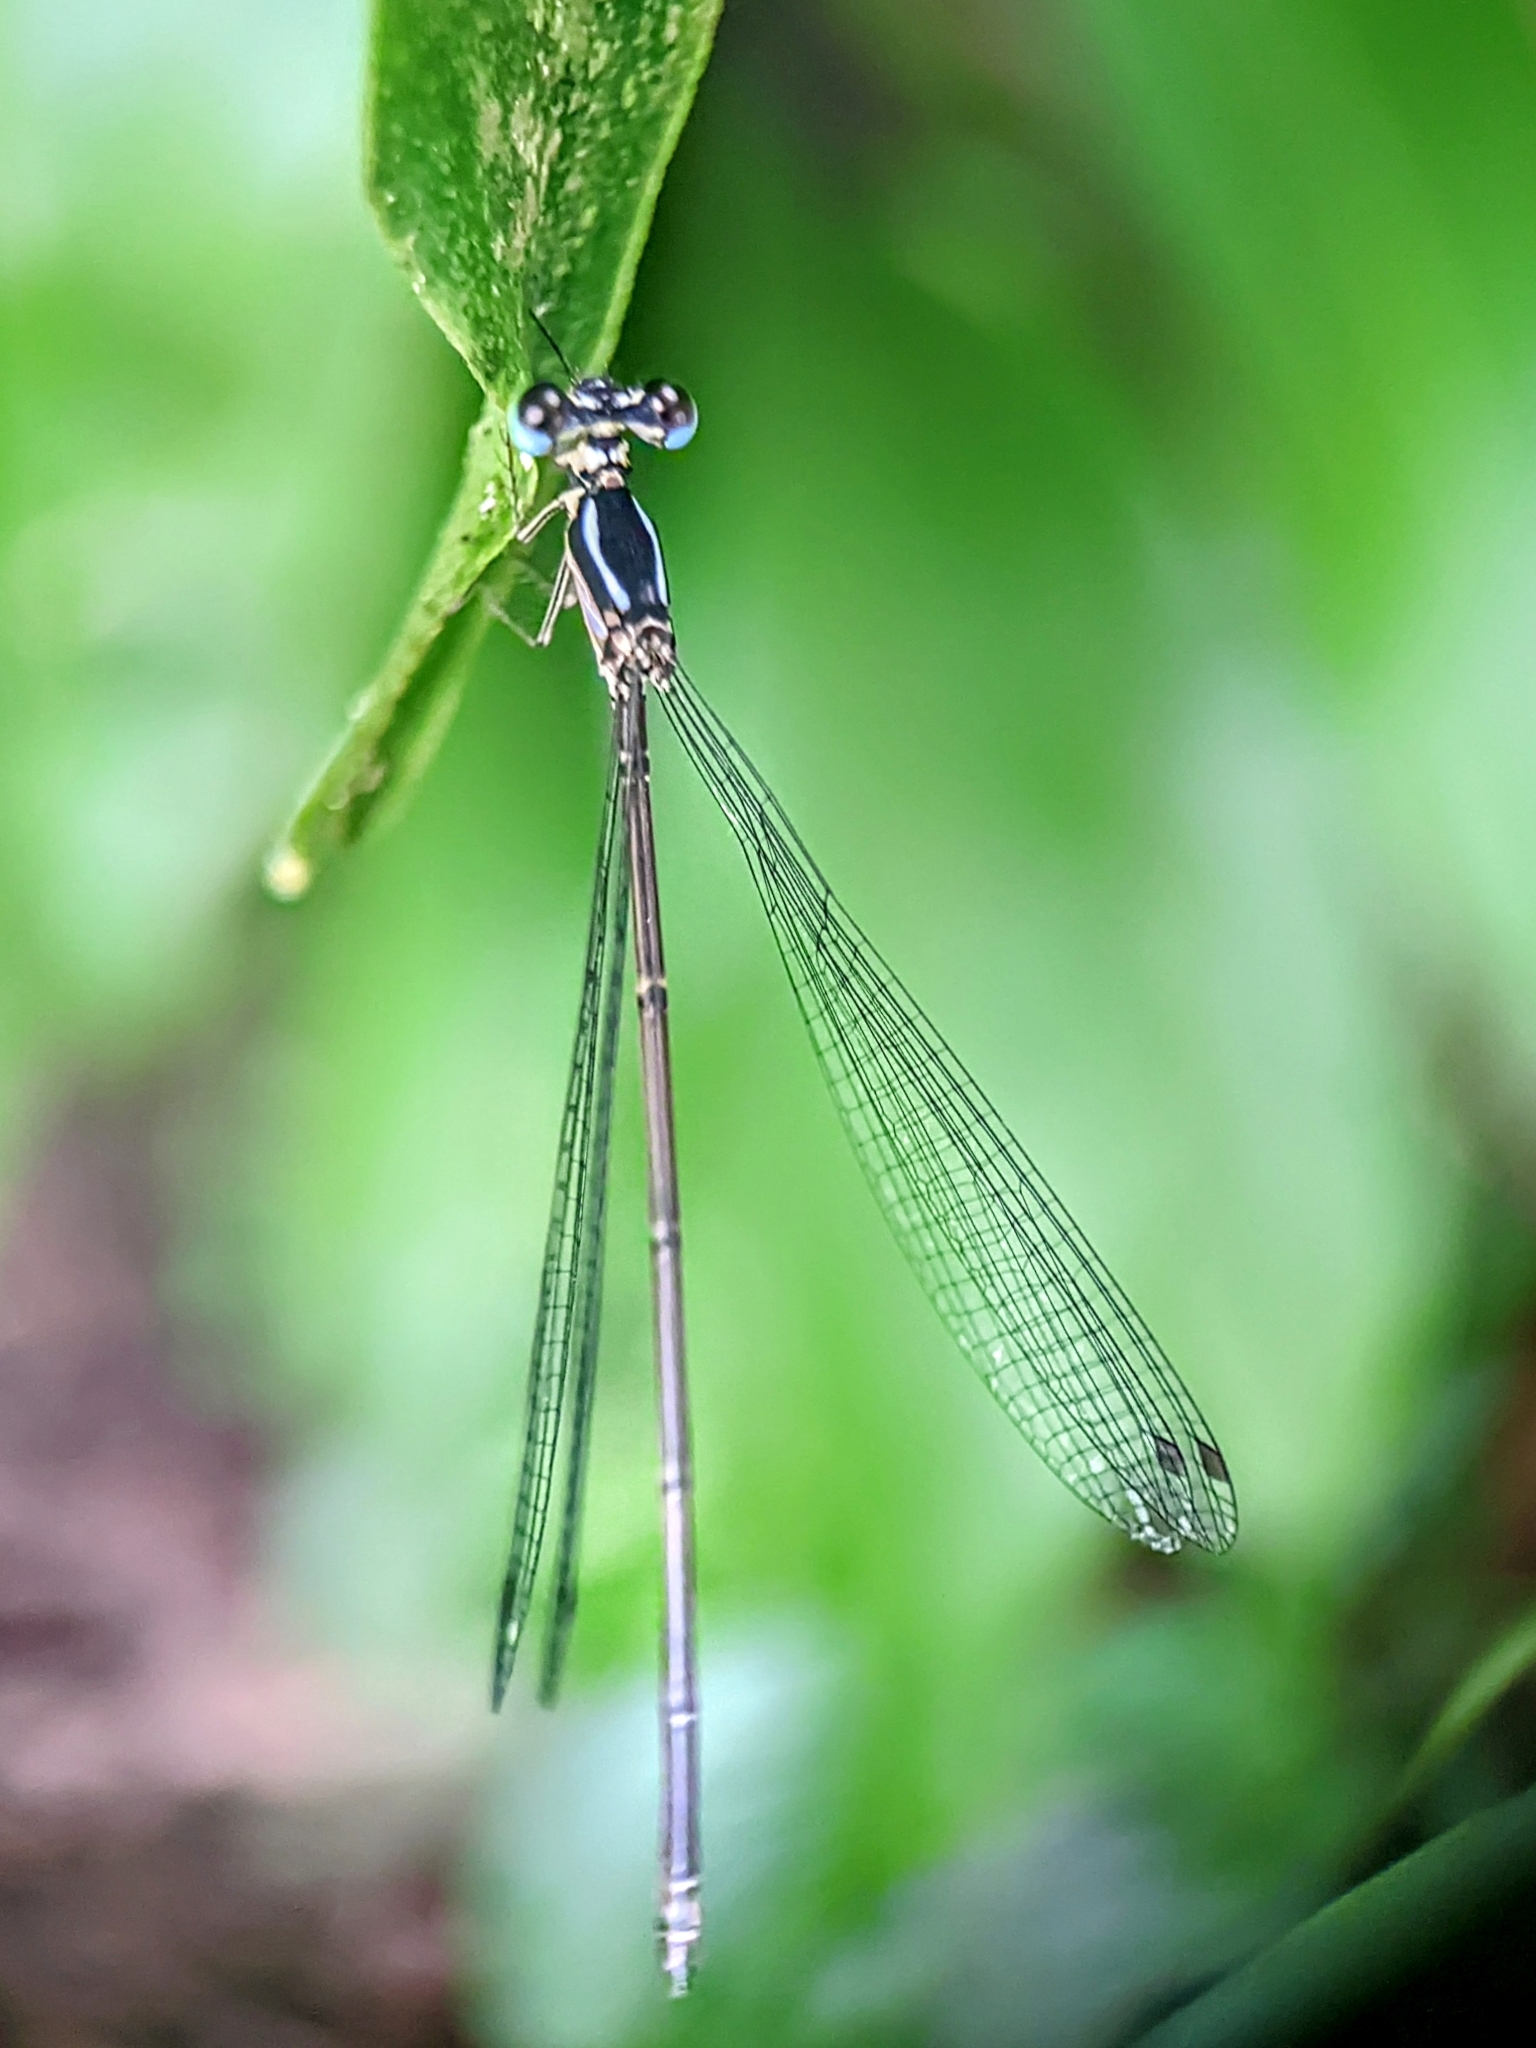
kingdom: Animalia
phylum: Arthropoda
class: Insecta
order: Odonata
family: Platycnemididae
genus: Coeliccia
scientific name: Coeliccia albicauda
